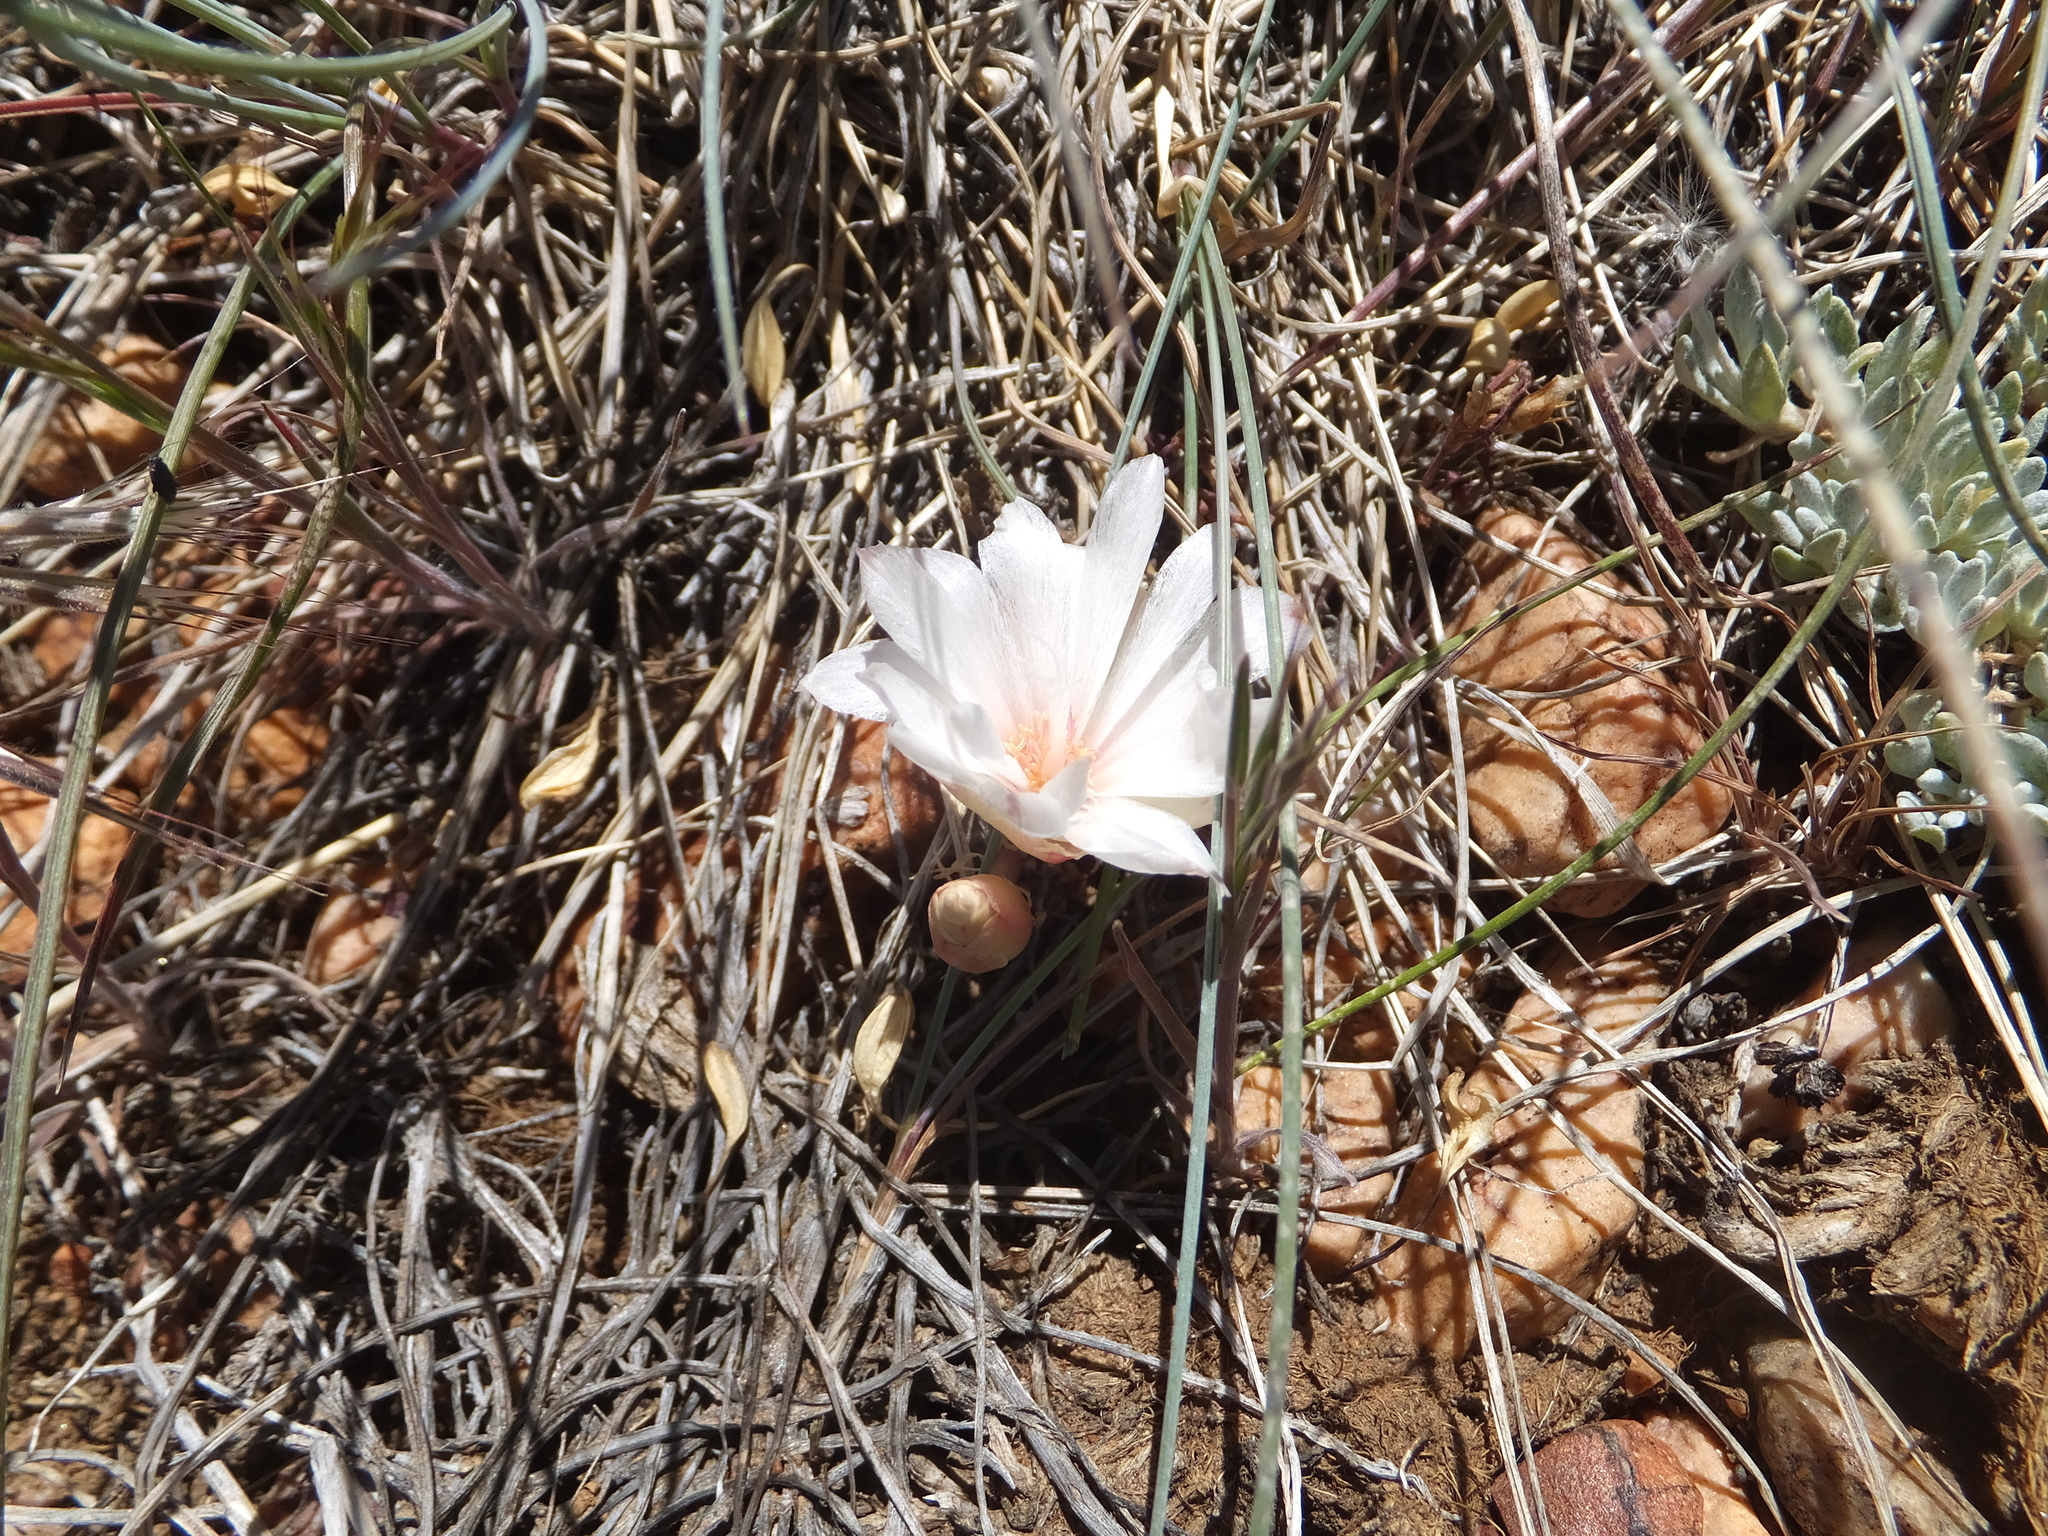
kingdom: Plantae
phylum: Tracheophyta
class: Magnoliopsida
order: Caryophyllales
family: Montiaceae
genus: Lewisia
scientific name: Lewisia rediviva
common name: Bitter-root
